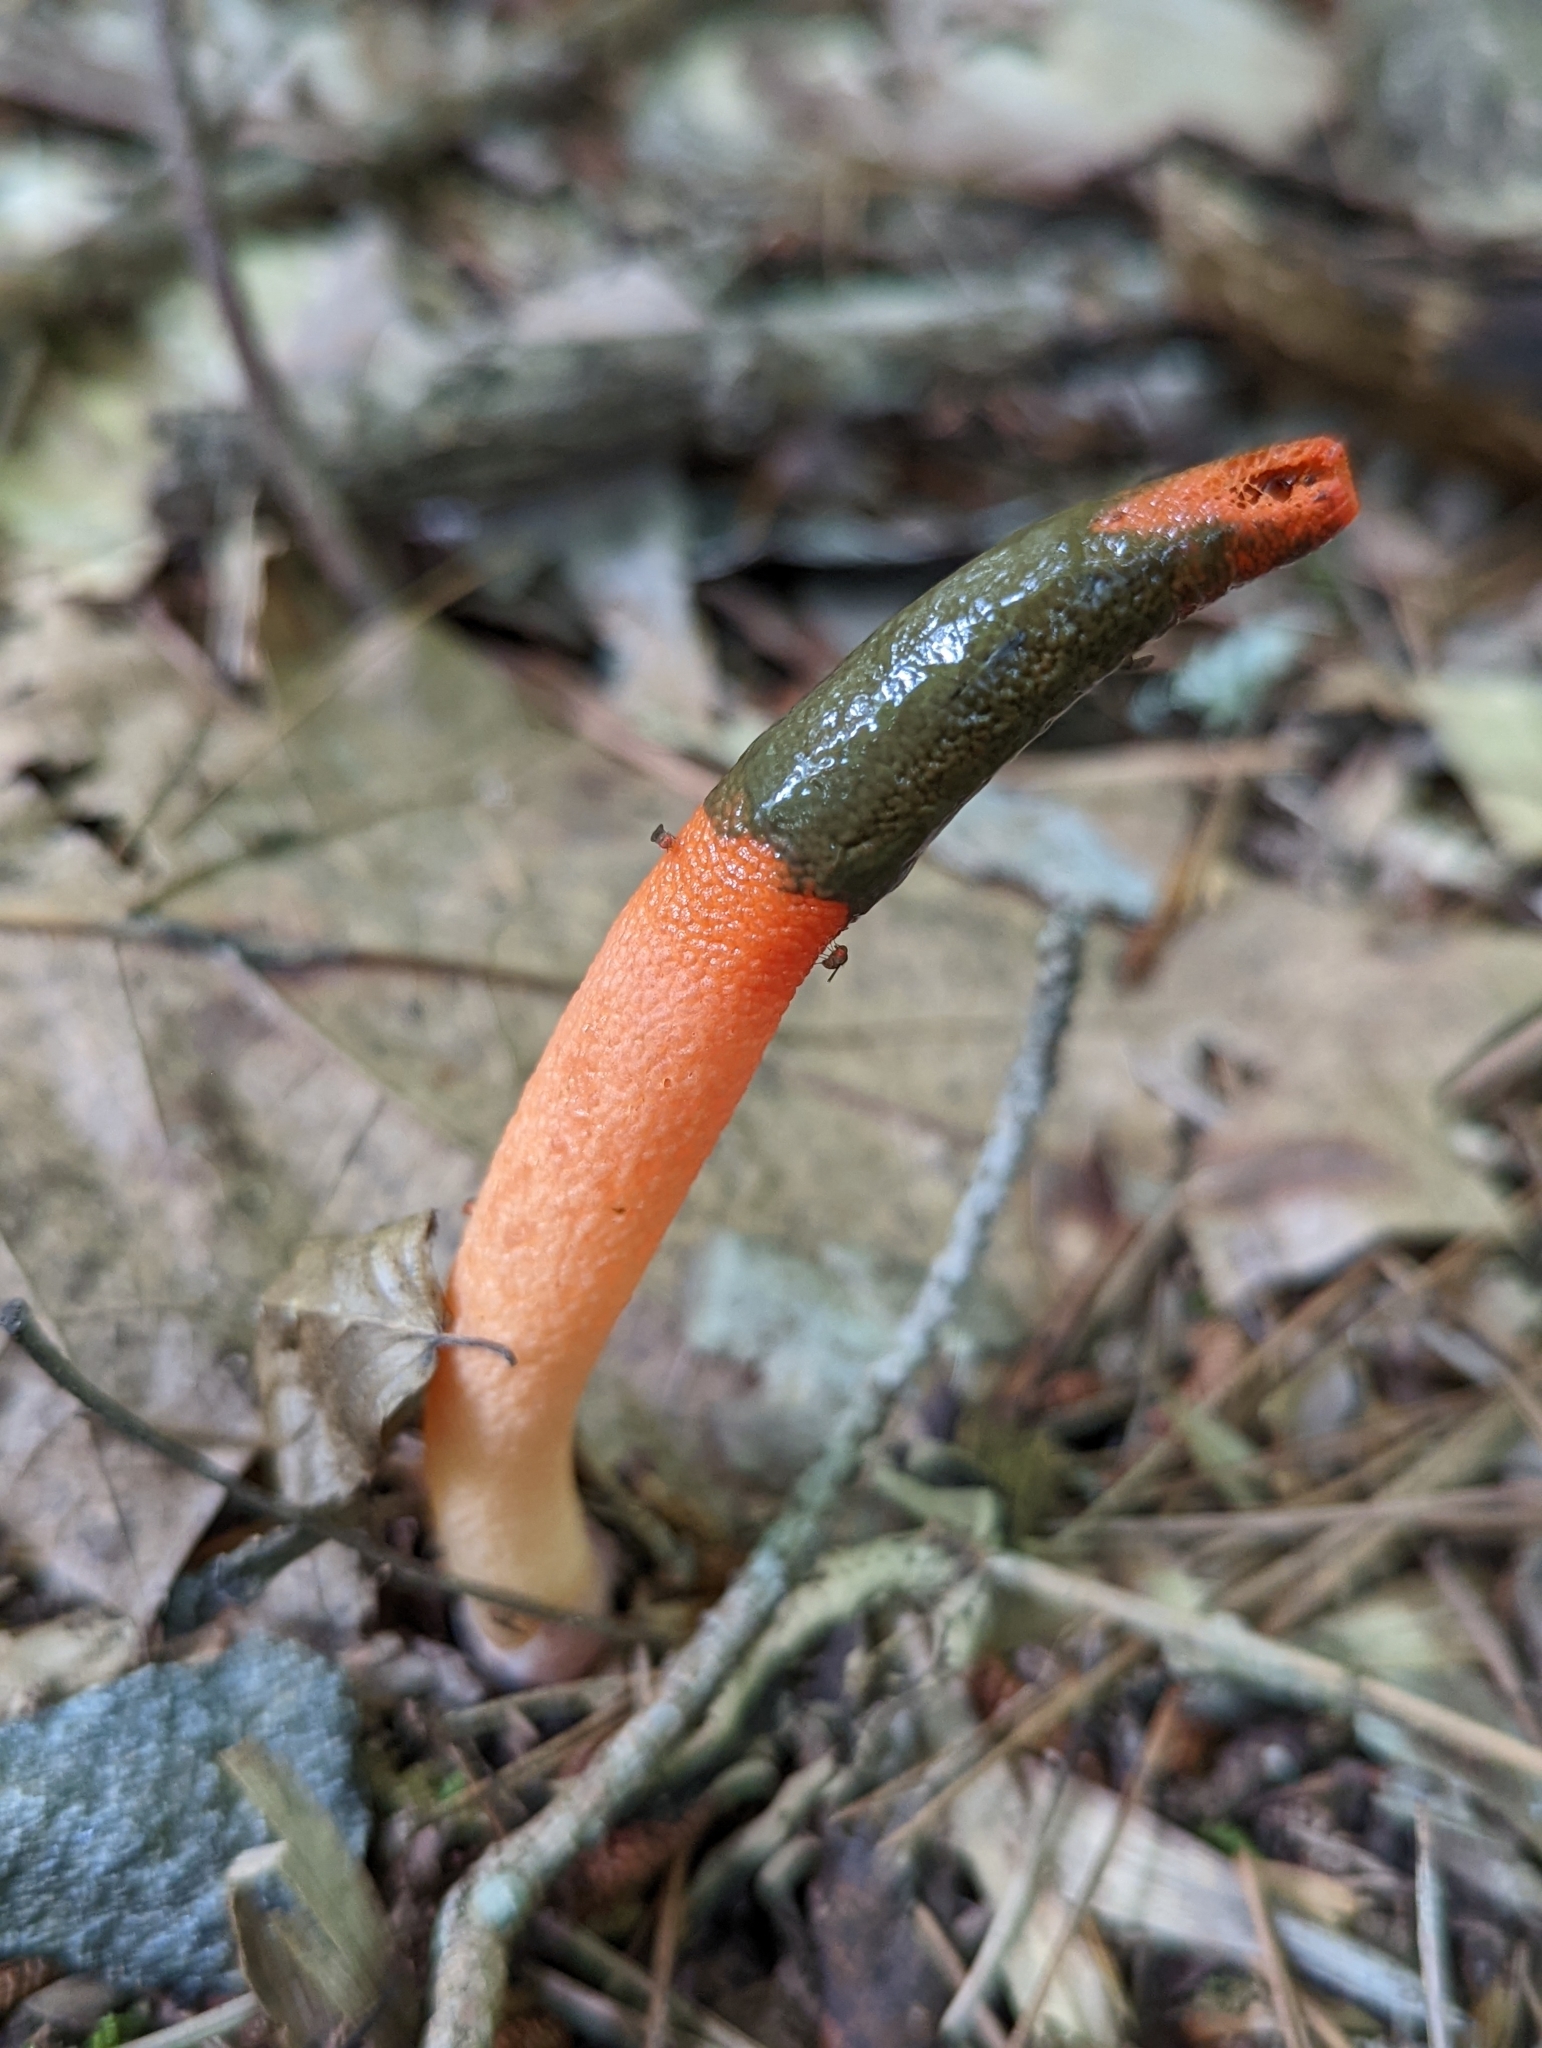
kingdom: Fungi
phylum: Basidiomycota
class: Agaricomycetes
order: Phallales
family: Phallaceae
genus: Mutinus
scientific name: Mutinus elegans
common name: Devil's dipstick
